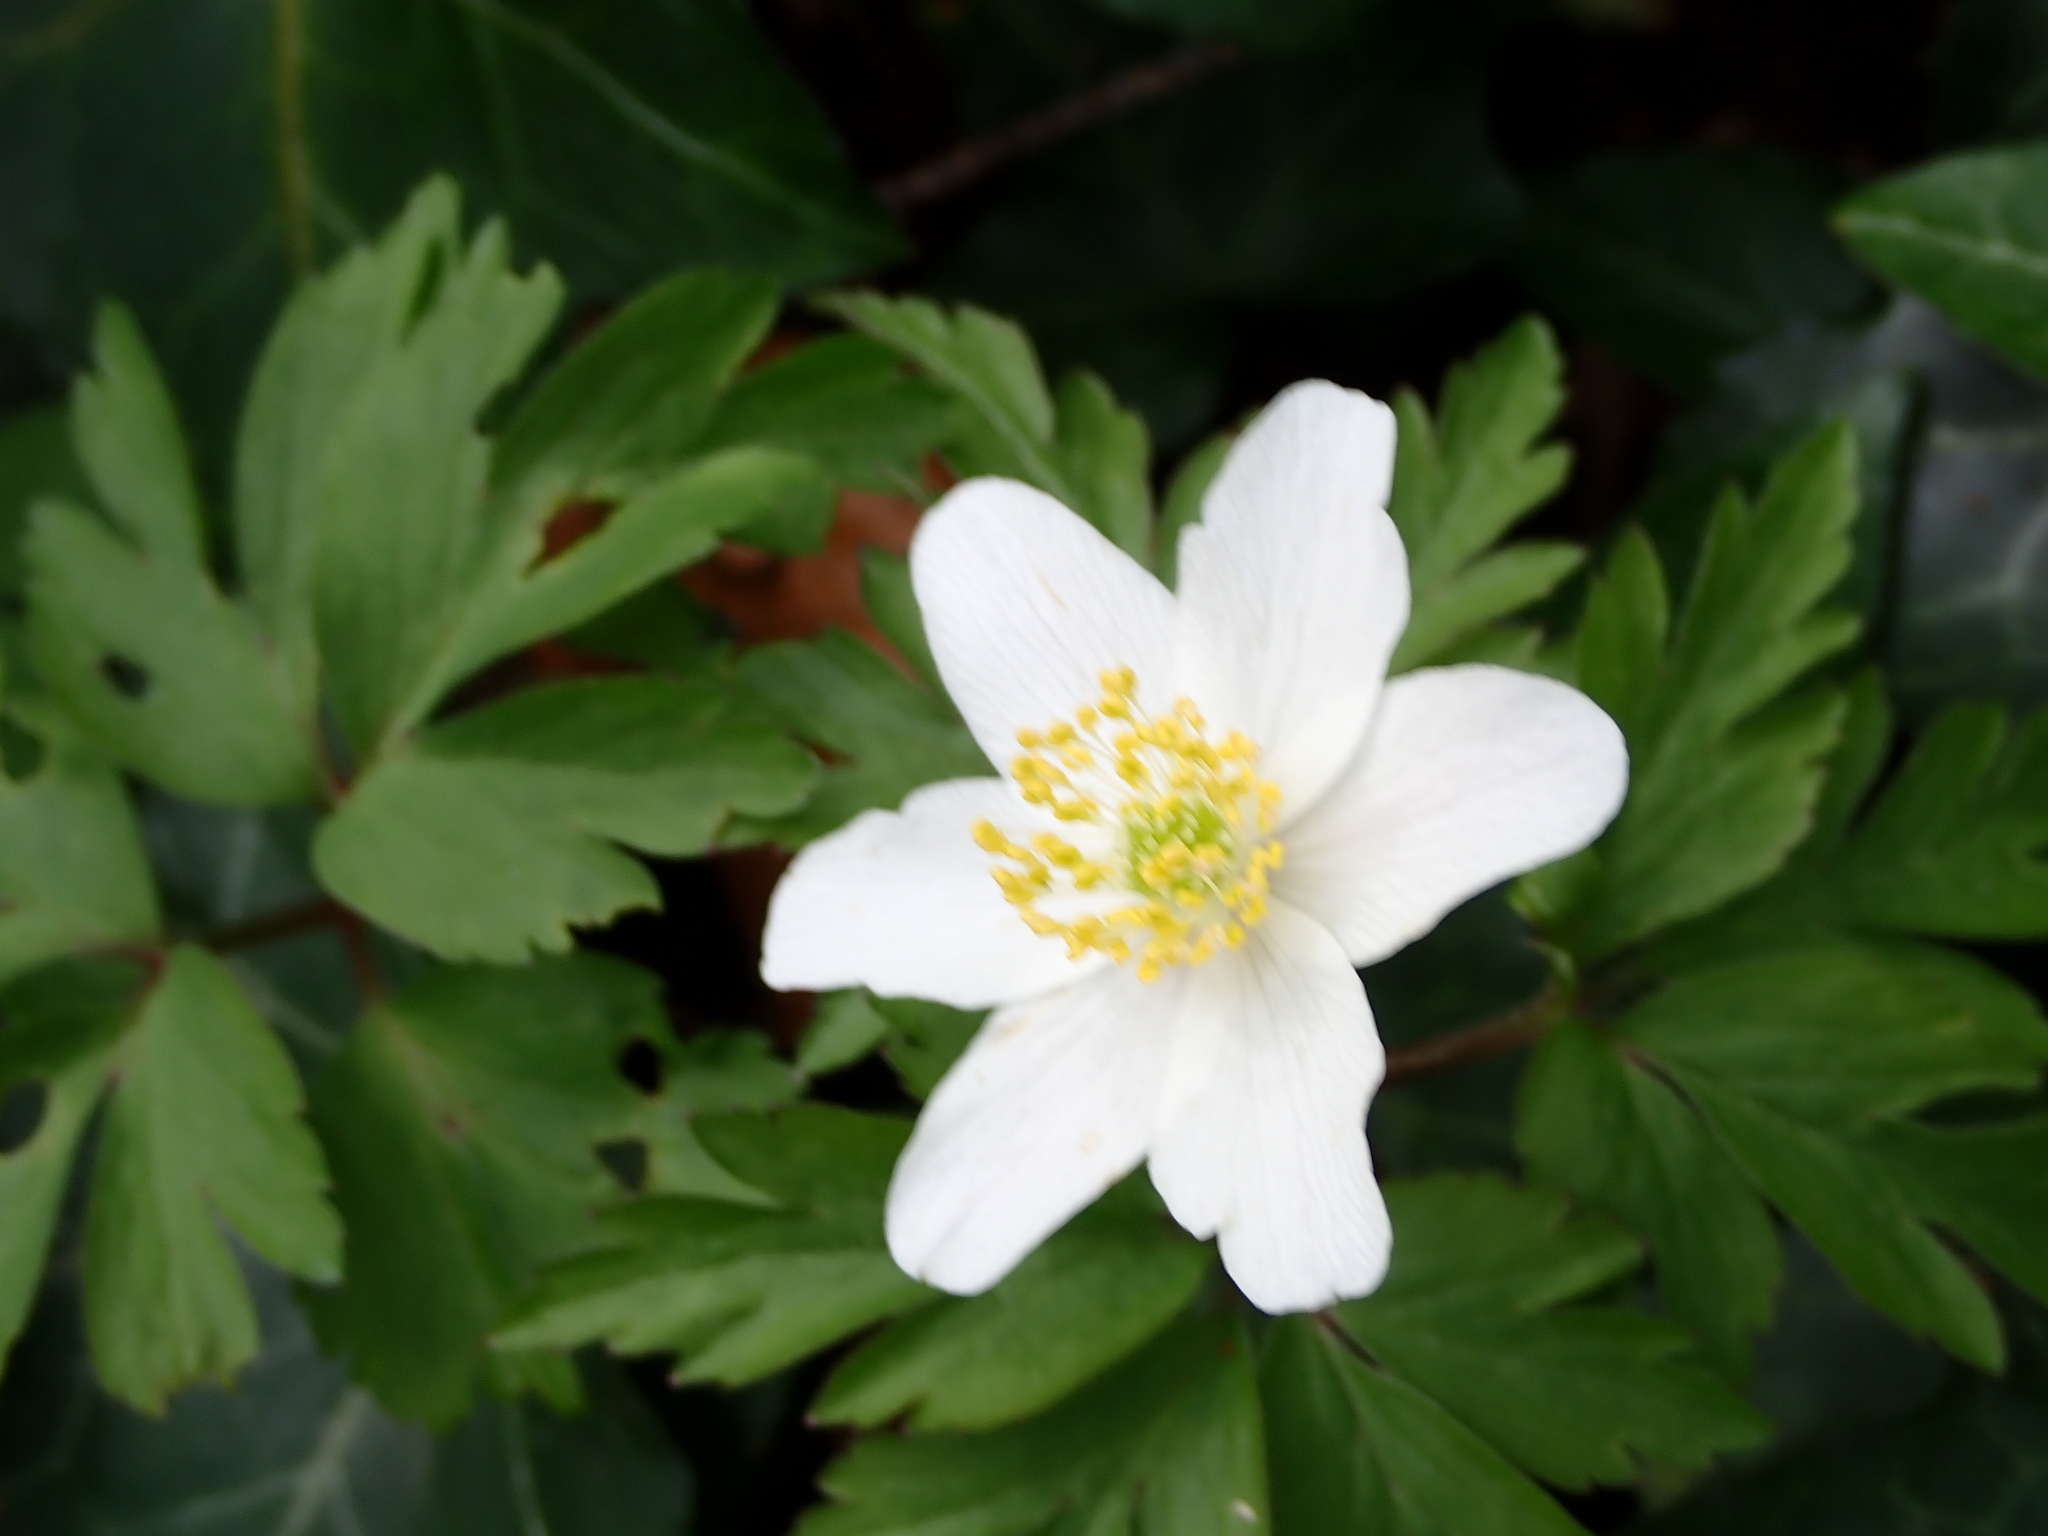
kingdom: Plantae
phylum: Tracheophyta
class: Magnoliopsida
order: Ranunculales
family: Ranunculaceae
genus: Anemone
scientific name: Anemone nemorosa
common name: Wood anemone
